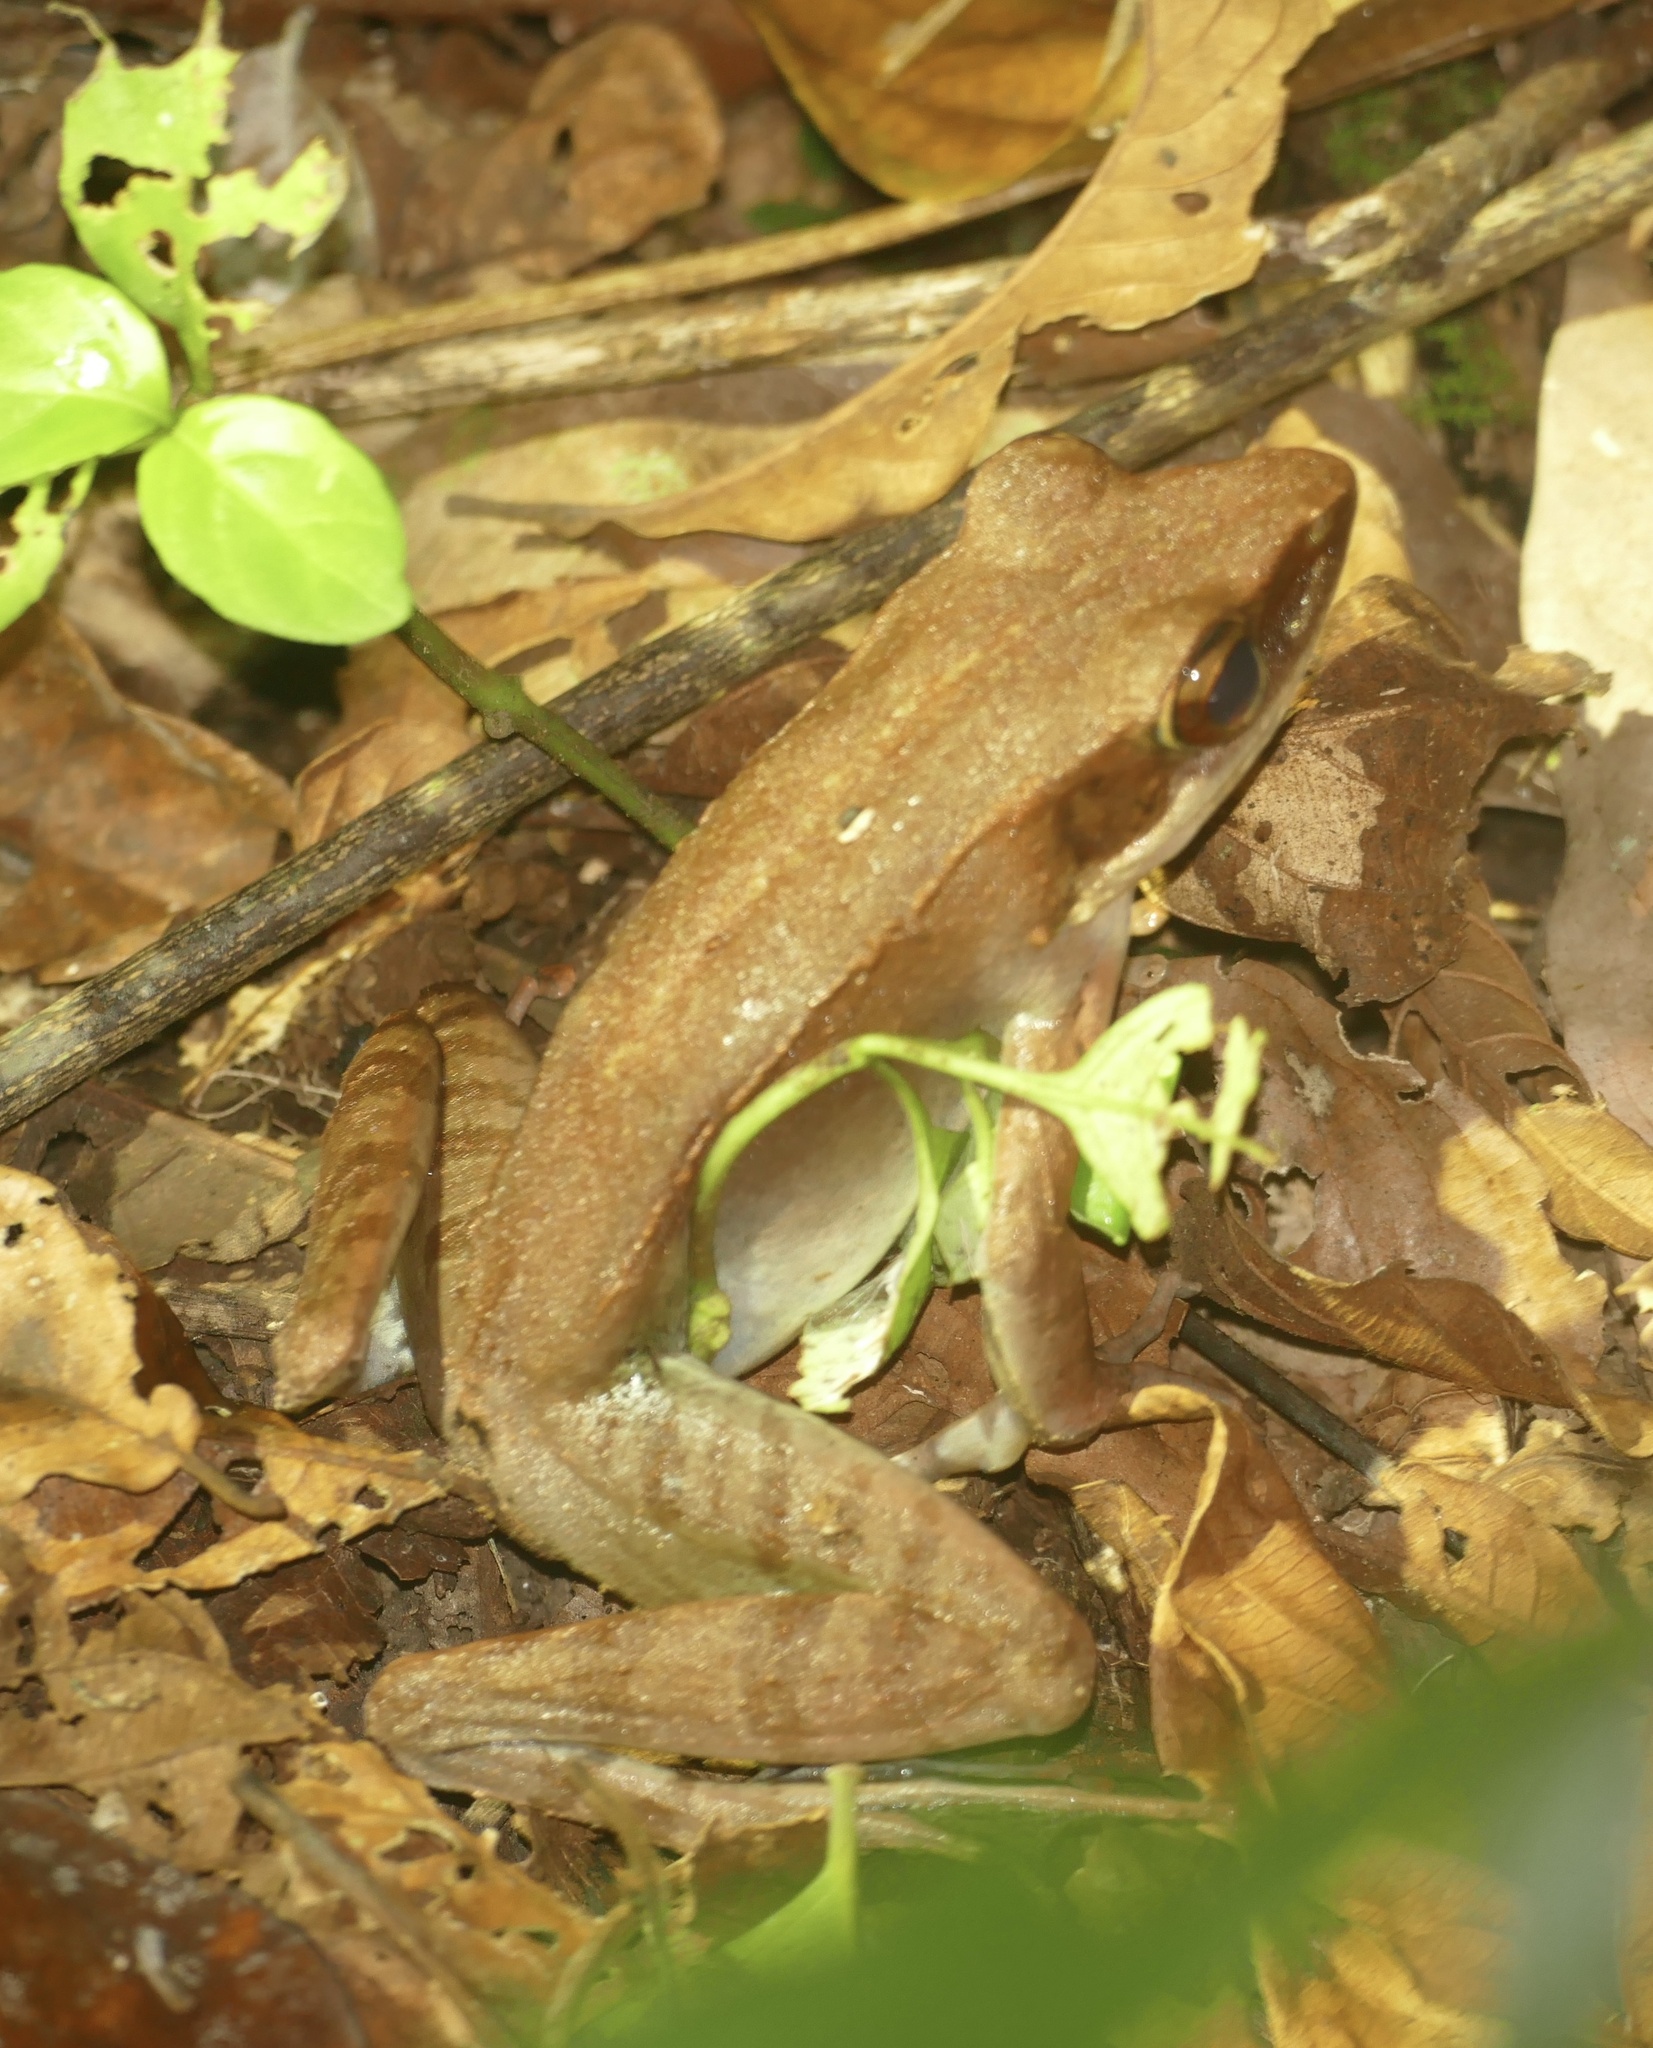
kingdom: Animalia
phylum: Chordata
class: Amphibia
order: Anura
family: Ranidae
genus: Papurana
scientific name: Papurana papua
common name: Papua frog
